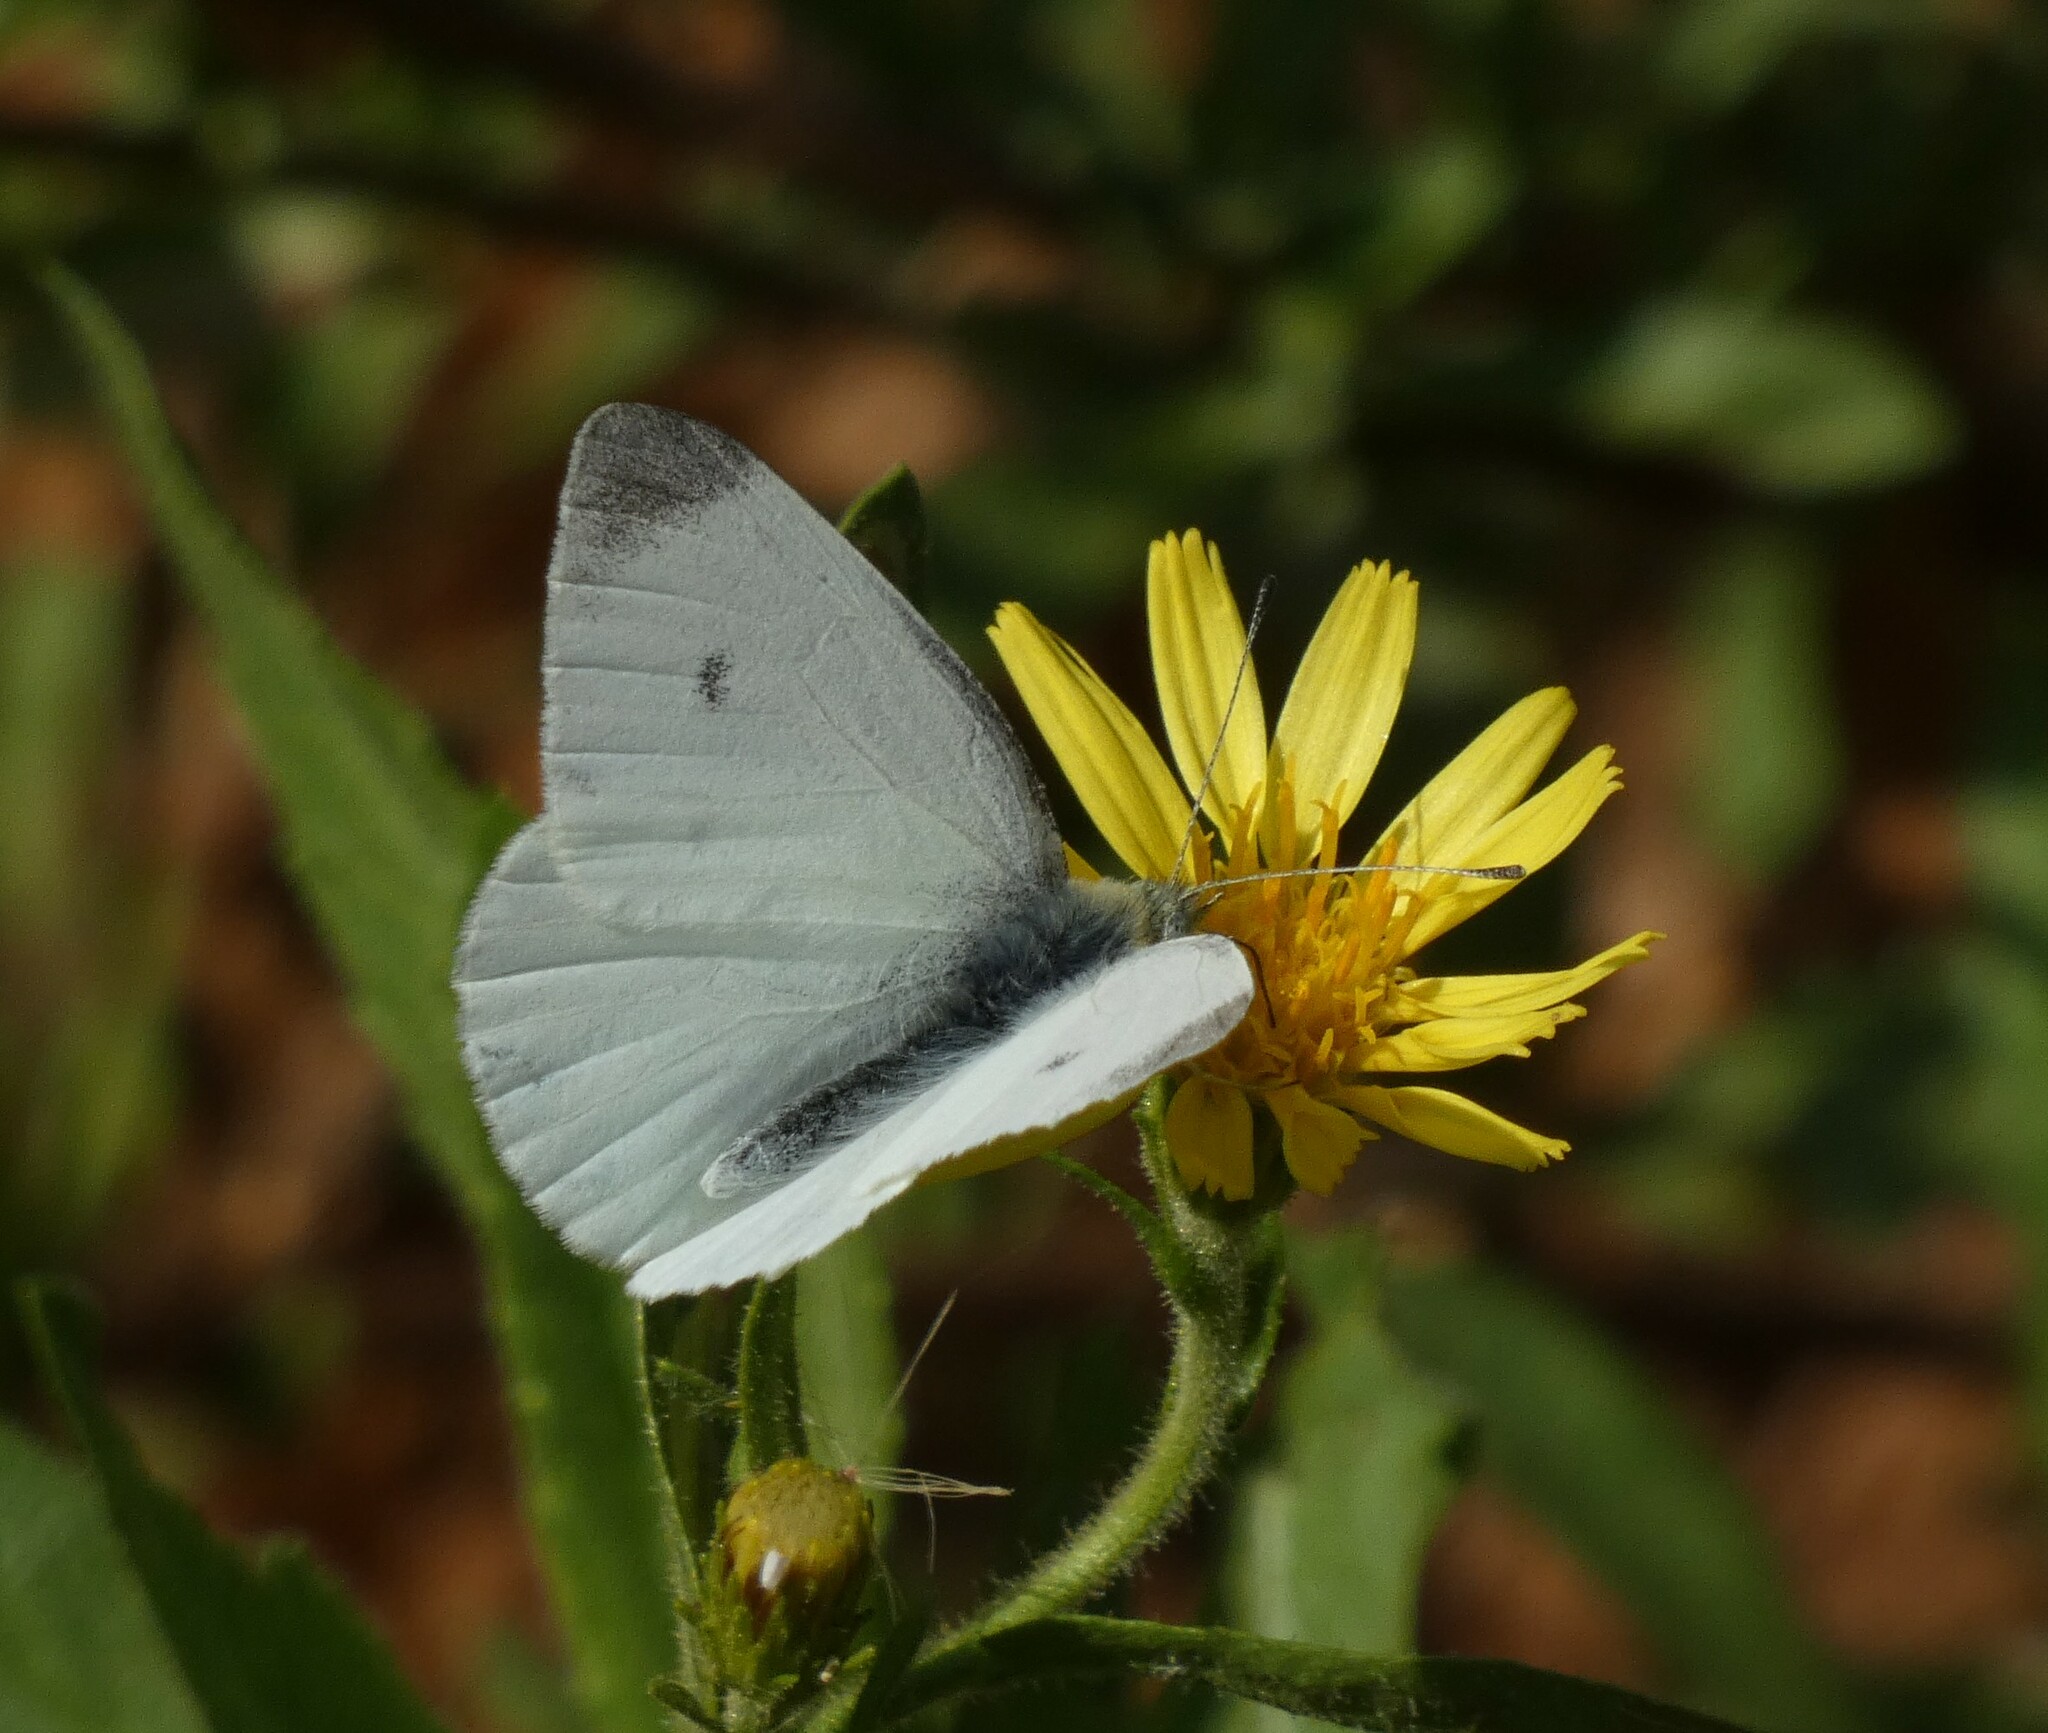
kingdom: Animalia
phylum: Arthropoda
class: Insecta
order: Lepidoptera
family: Pieridae
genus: Pieris
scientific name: Pieris rapae
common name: Small white
